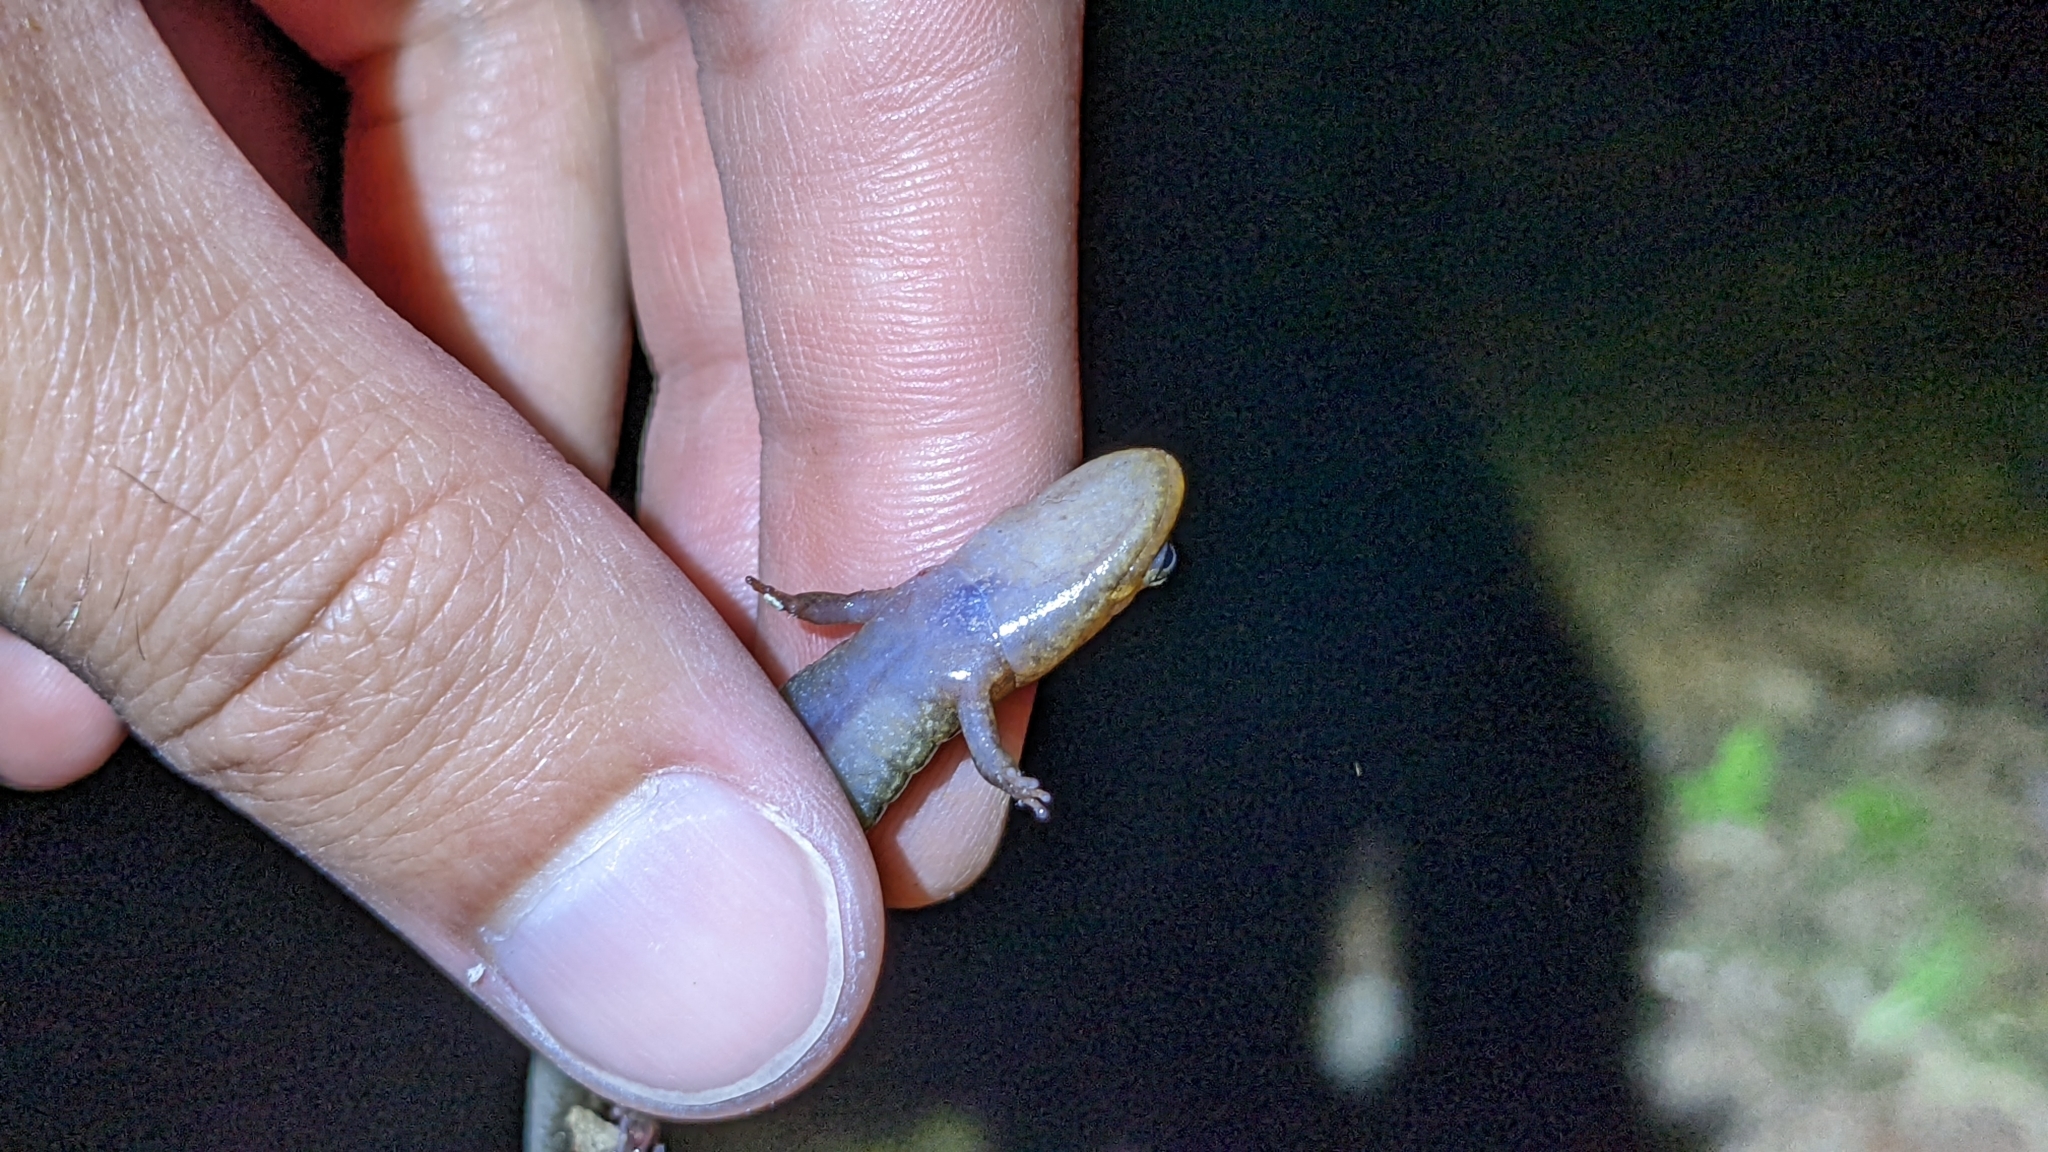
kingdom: Animalia
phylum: Chordata
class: Amphibia
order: Caudata
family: Plethodontidae
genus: Desmognathus
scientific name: Desmognathus brimleyorum
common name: Ouachita dusky salamander
